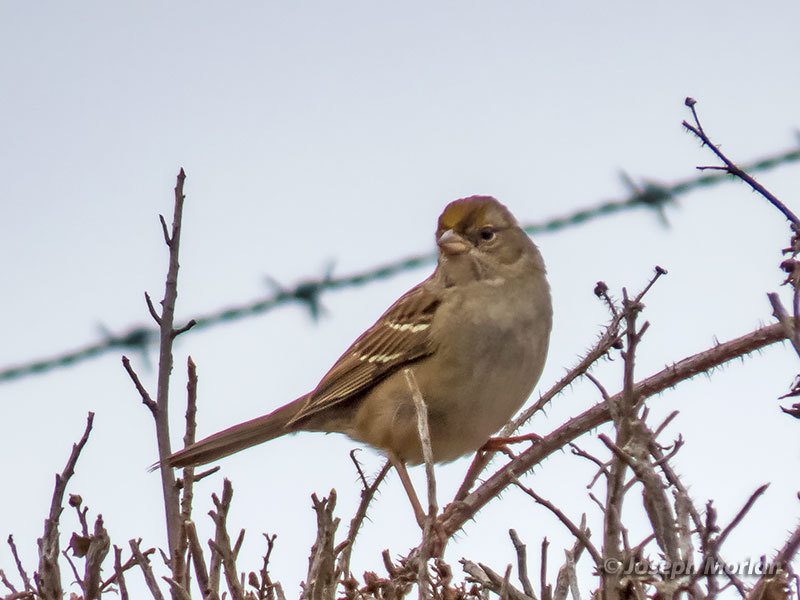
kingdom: Animalia
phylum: Chordata
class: Aves
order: Passeriformes
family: Passerellidae
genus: Zonotrichia
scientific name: Zonotrichia atricapilla
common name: Golden-crowned sparrow
